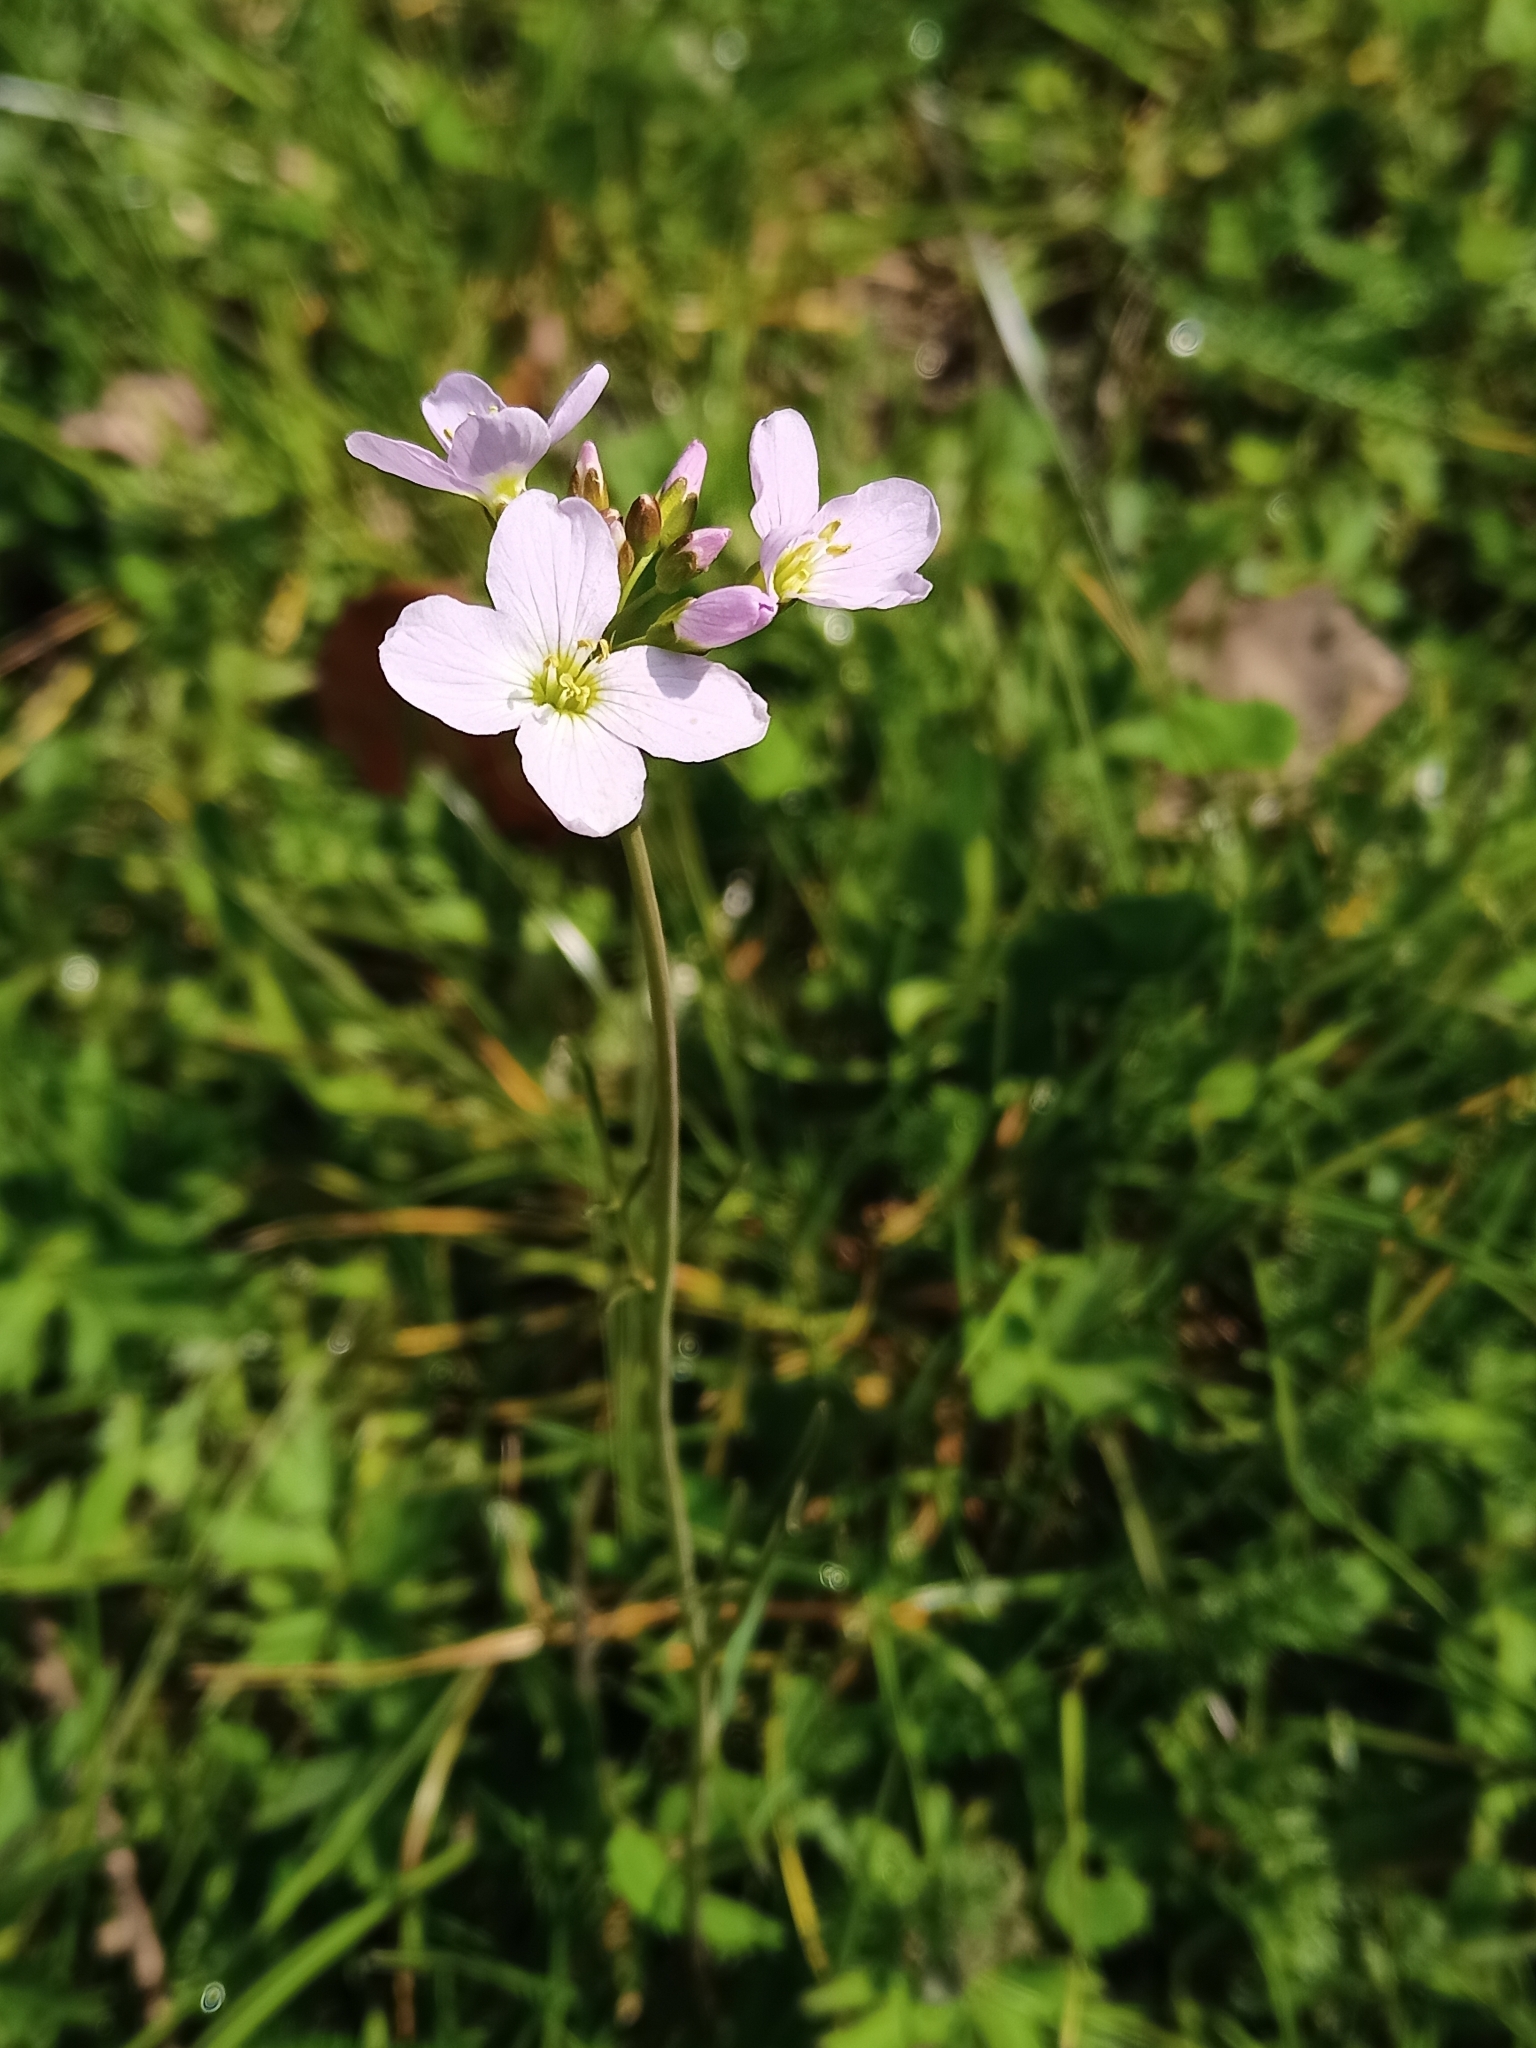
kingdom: Plantae
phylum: Tracheophyta
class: Magnoliopsida
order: Brassicales
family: Brassicaceae
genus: Cardamine
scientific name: Cardamine pratensis
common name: Cuckoo flower
